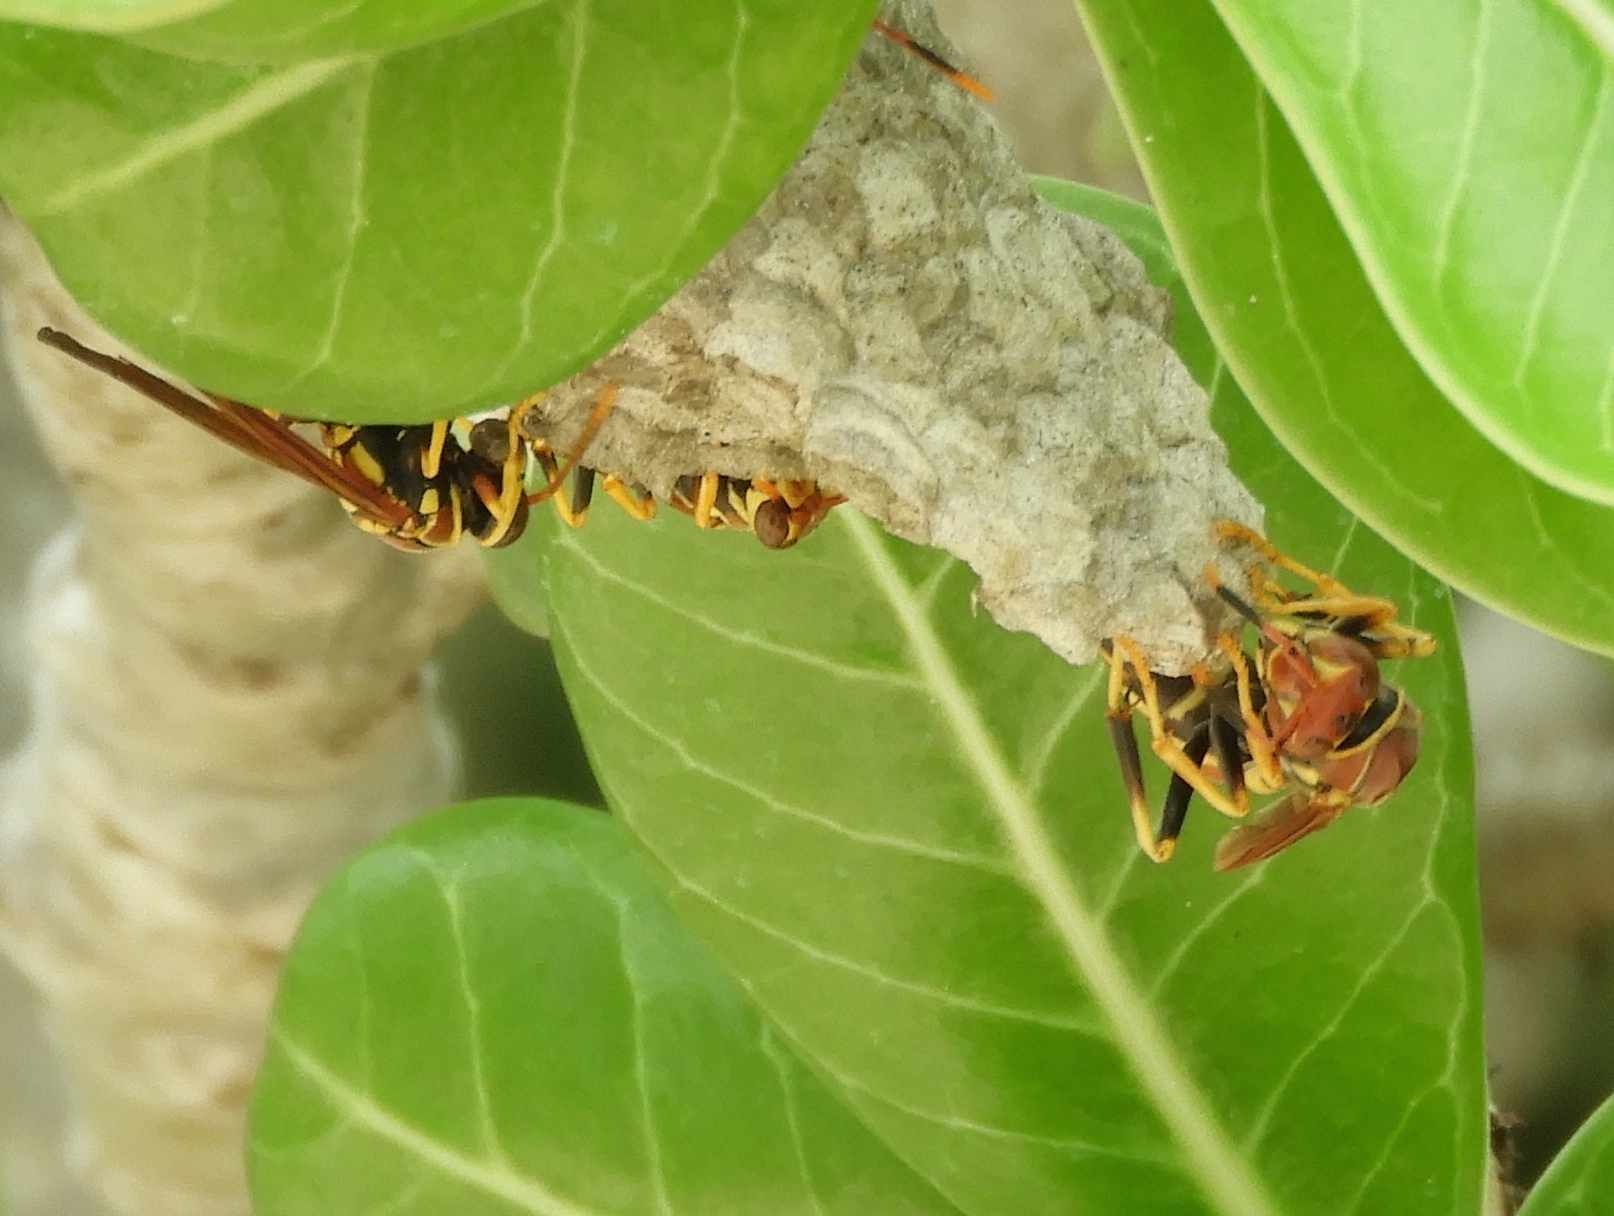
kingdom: Animalia
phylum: Arthropoda
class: Insecta
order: Hymenoptera
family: Eumenidae
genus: Polistes
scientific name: Polistes instabilis
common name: Unstable paper wasp
